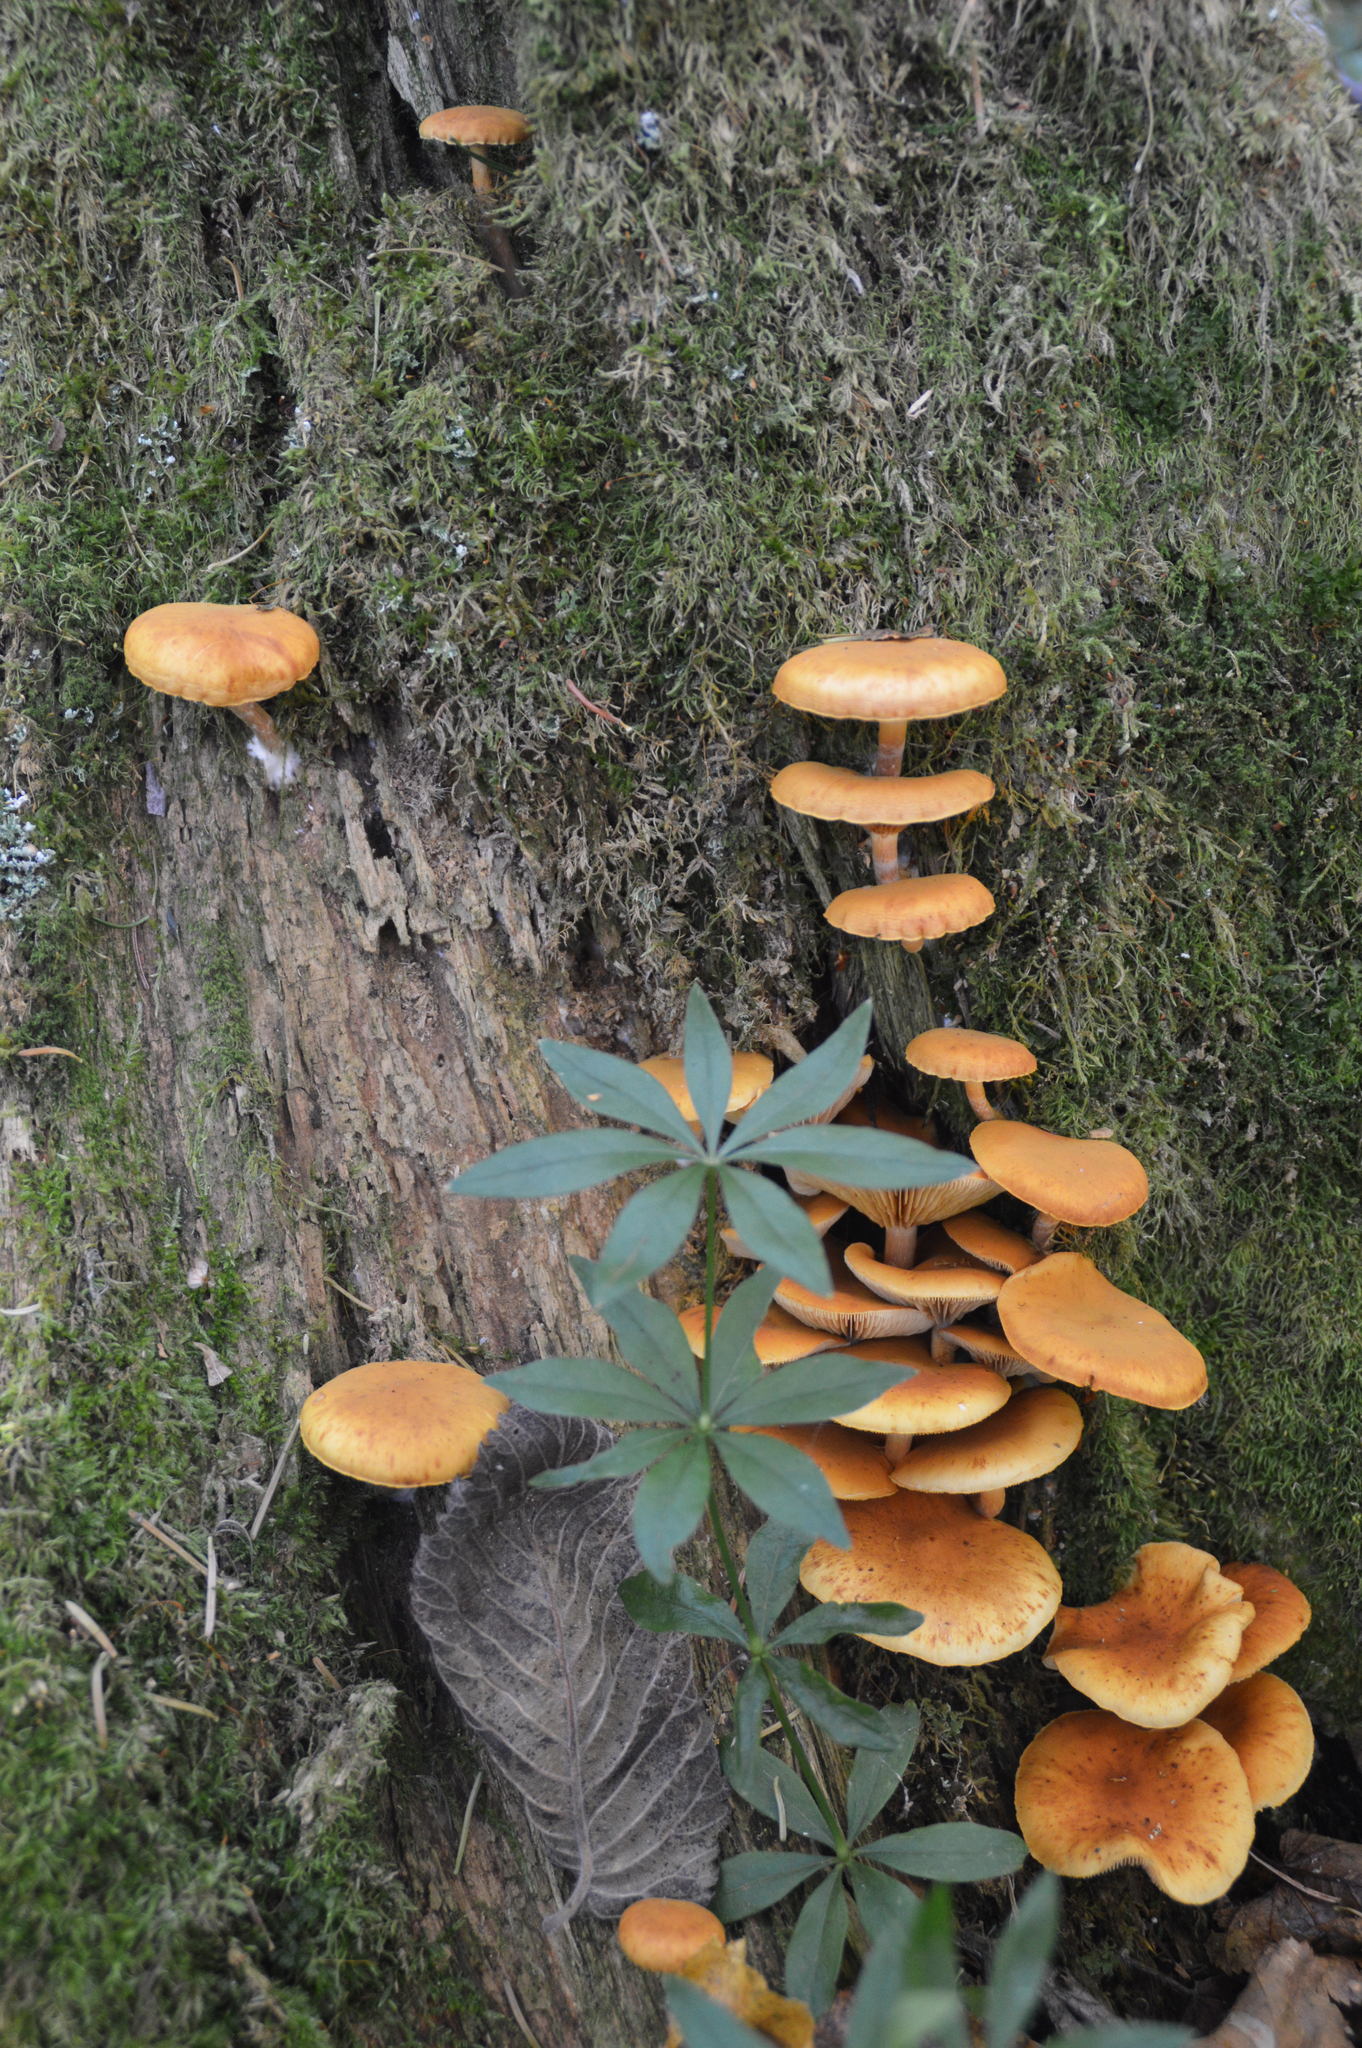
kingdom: Fungi
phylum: Basidiomycota
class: Agaricomycetes
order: Agaricales
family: Strophariaceae
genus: Kuehneromyces
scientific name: Kuehneromyces mutabilis
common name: Sheathed woodtuft
